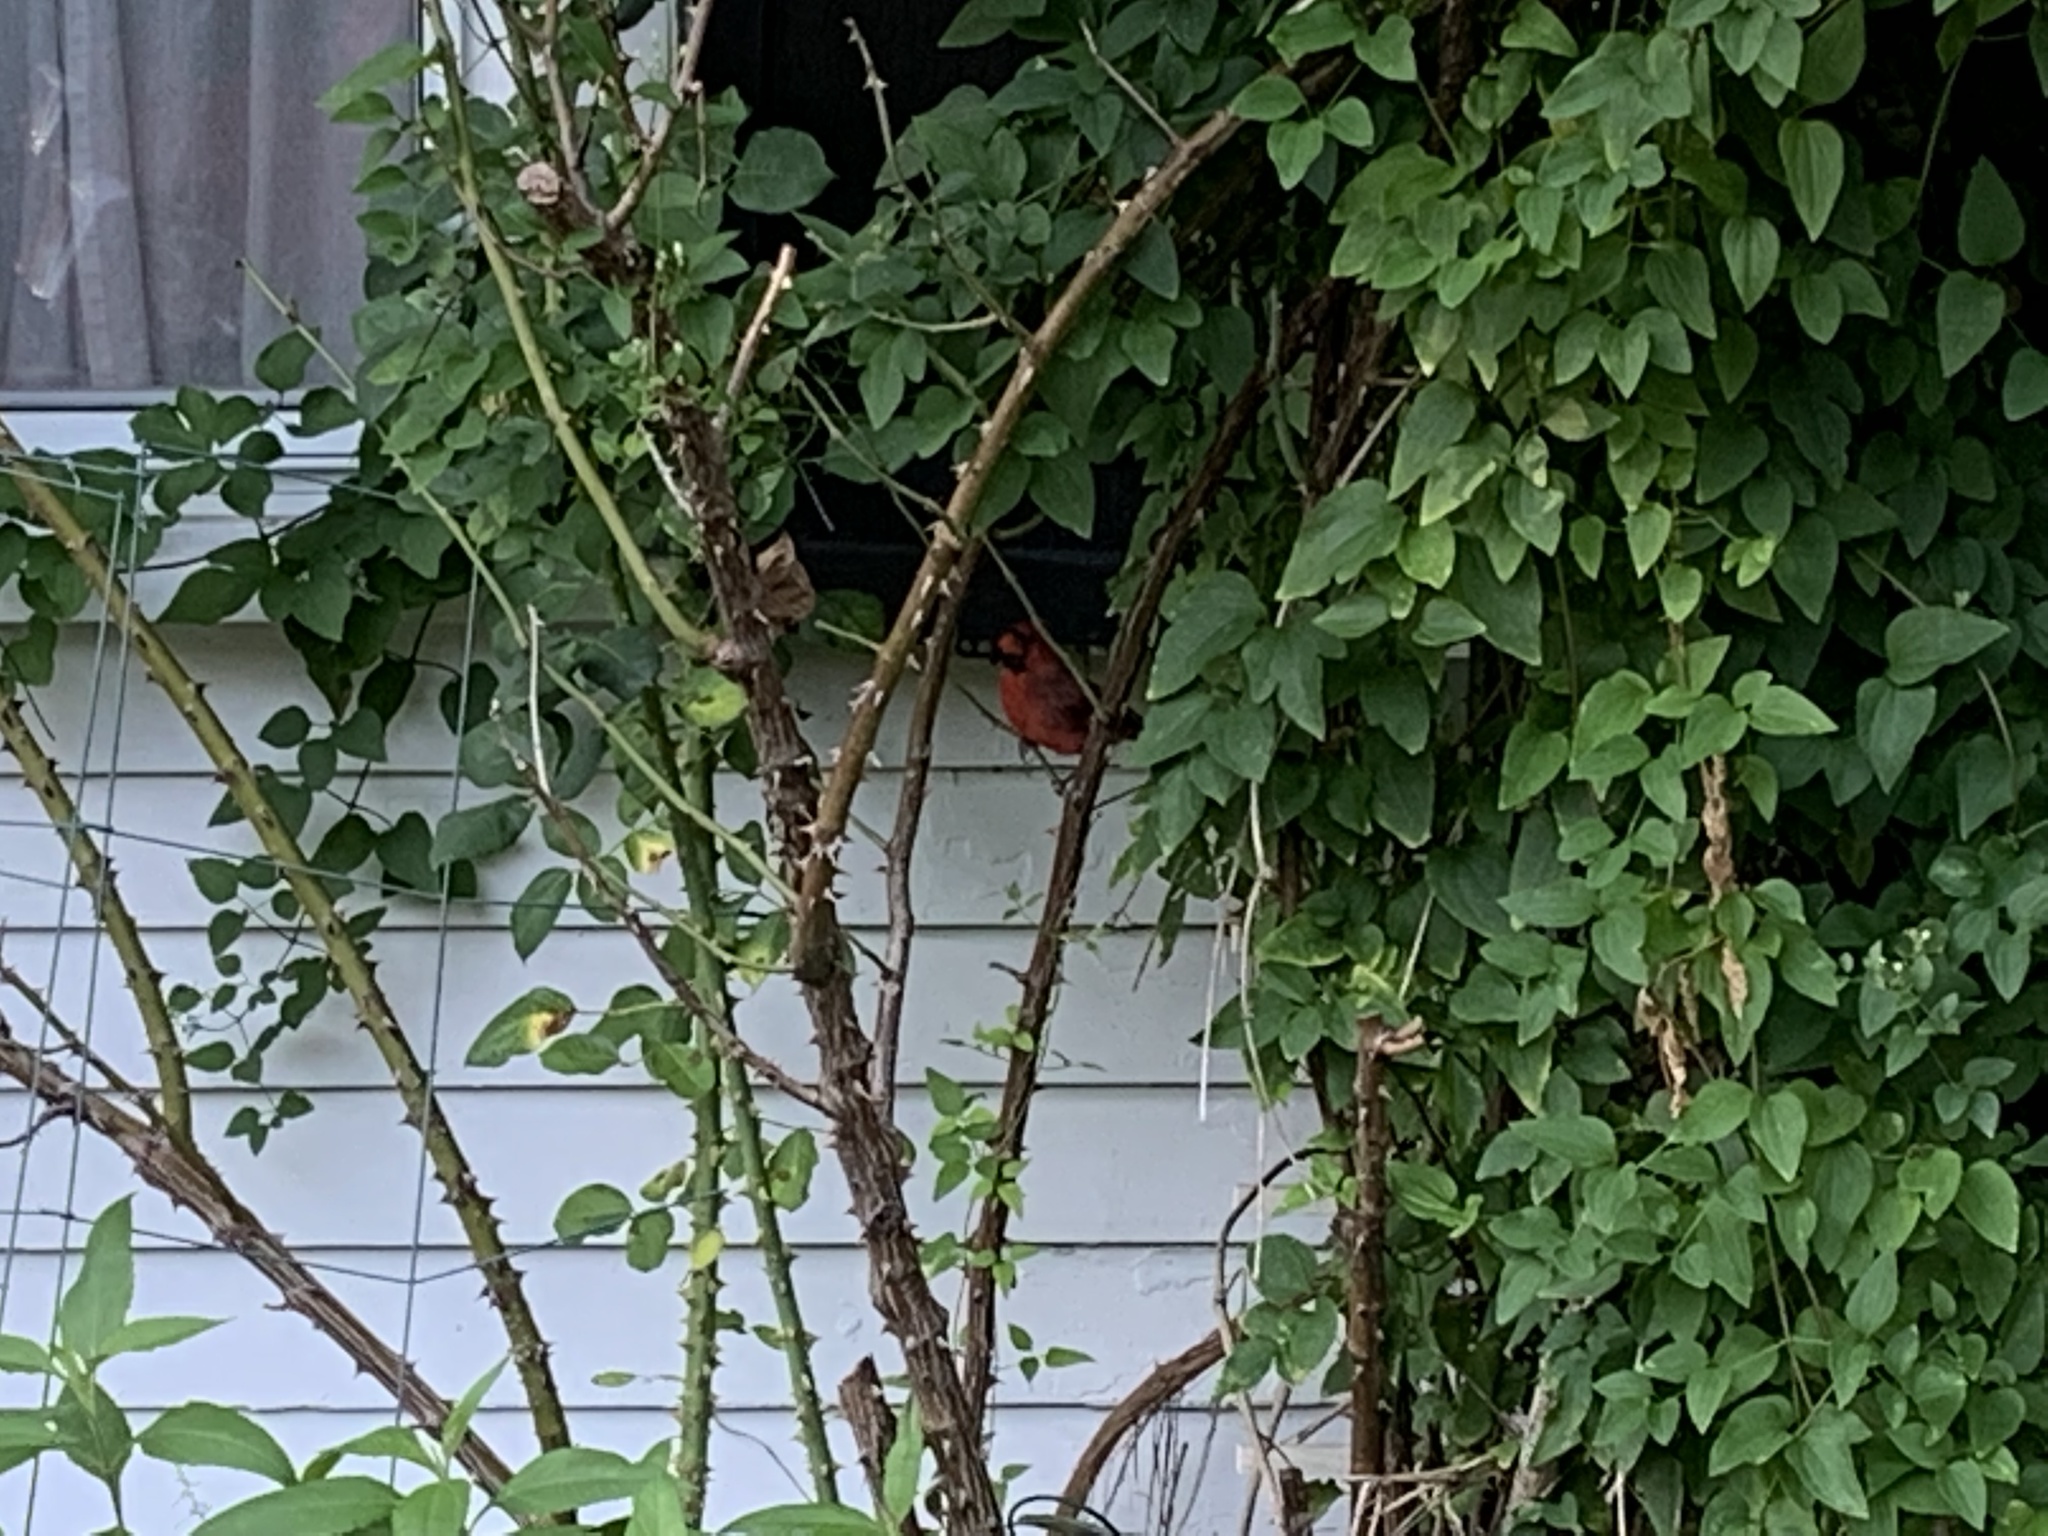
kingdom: Animalia
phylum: Chordata
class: Aves
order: Passeriformes
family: Cardinalidae
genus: Cardinalis
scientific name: Cardinalis cardinalis
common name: Northern cardinal
